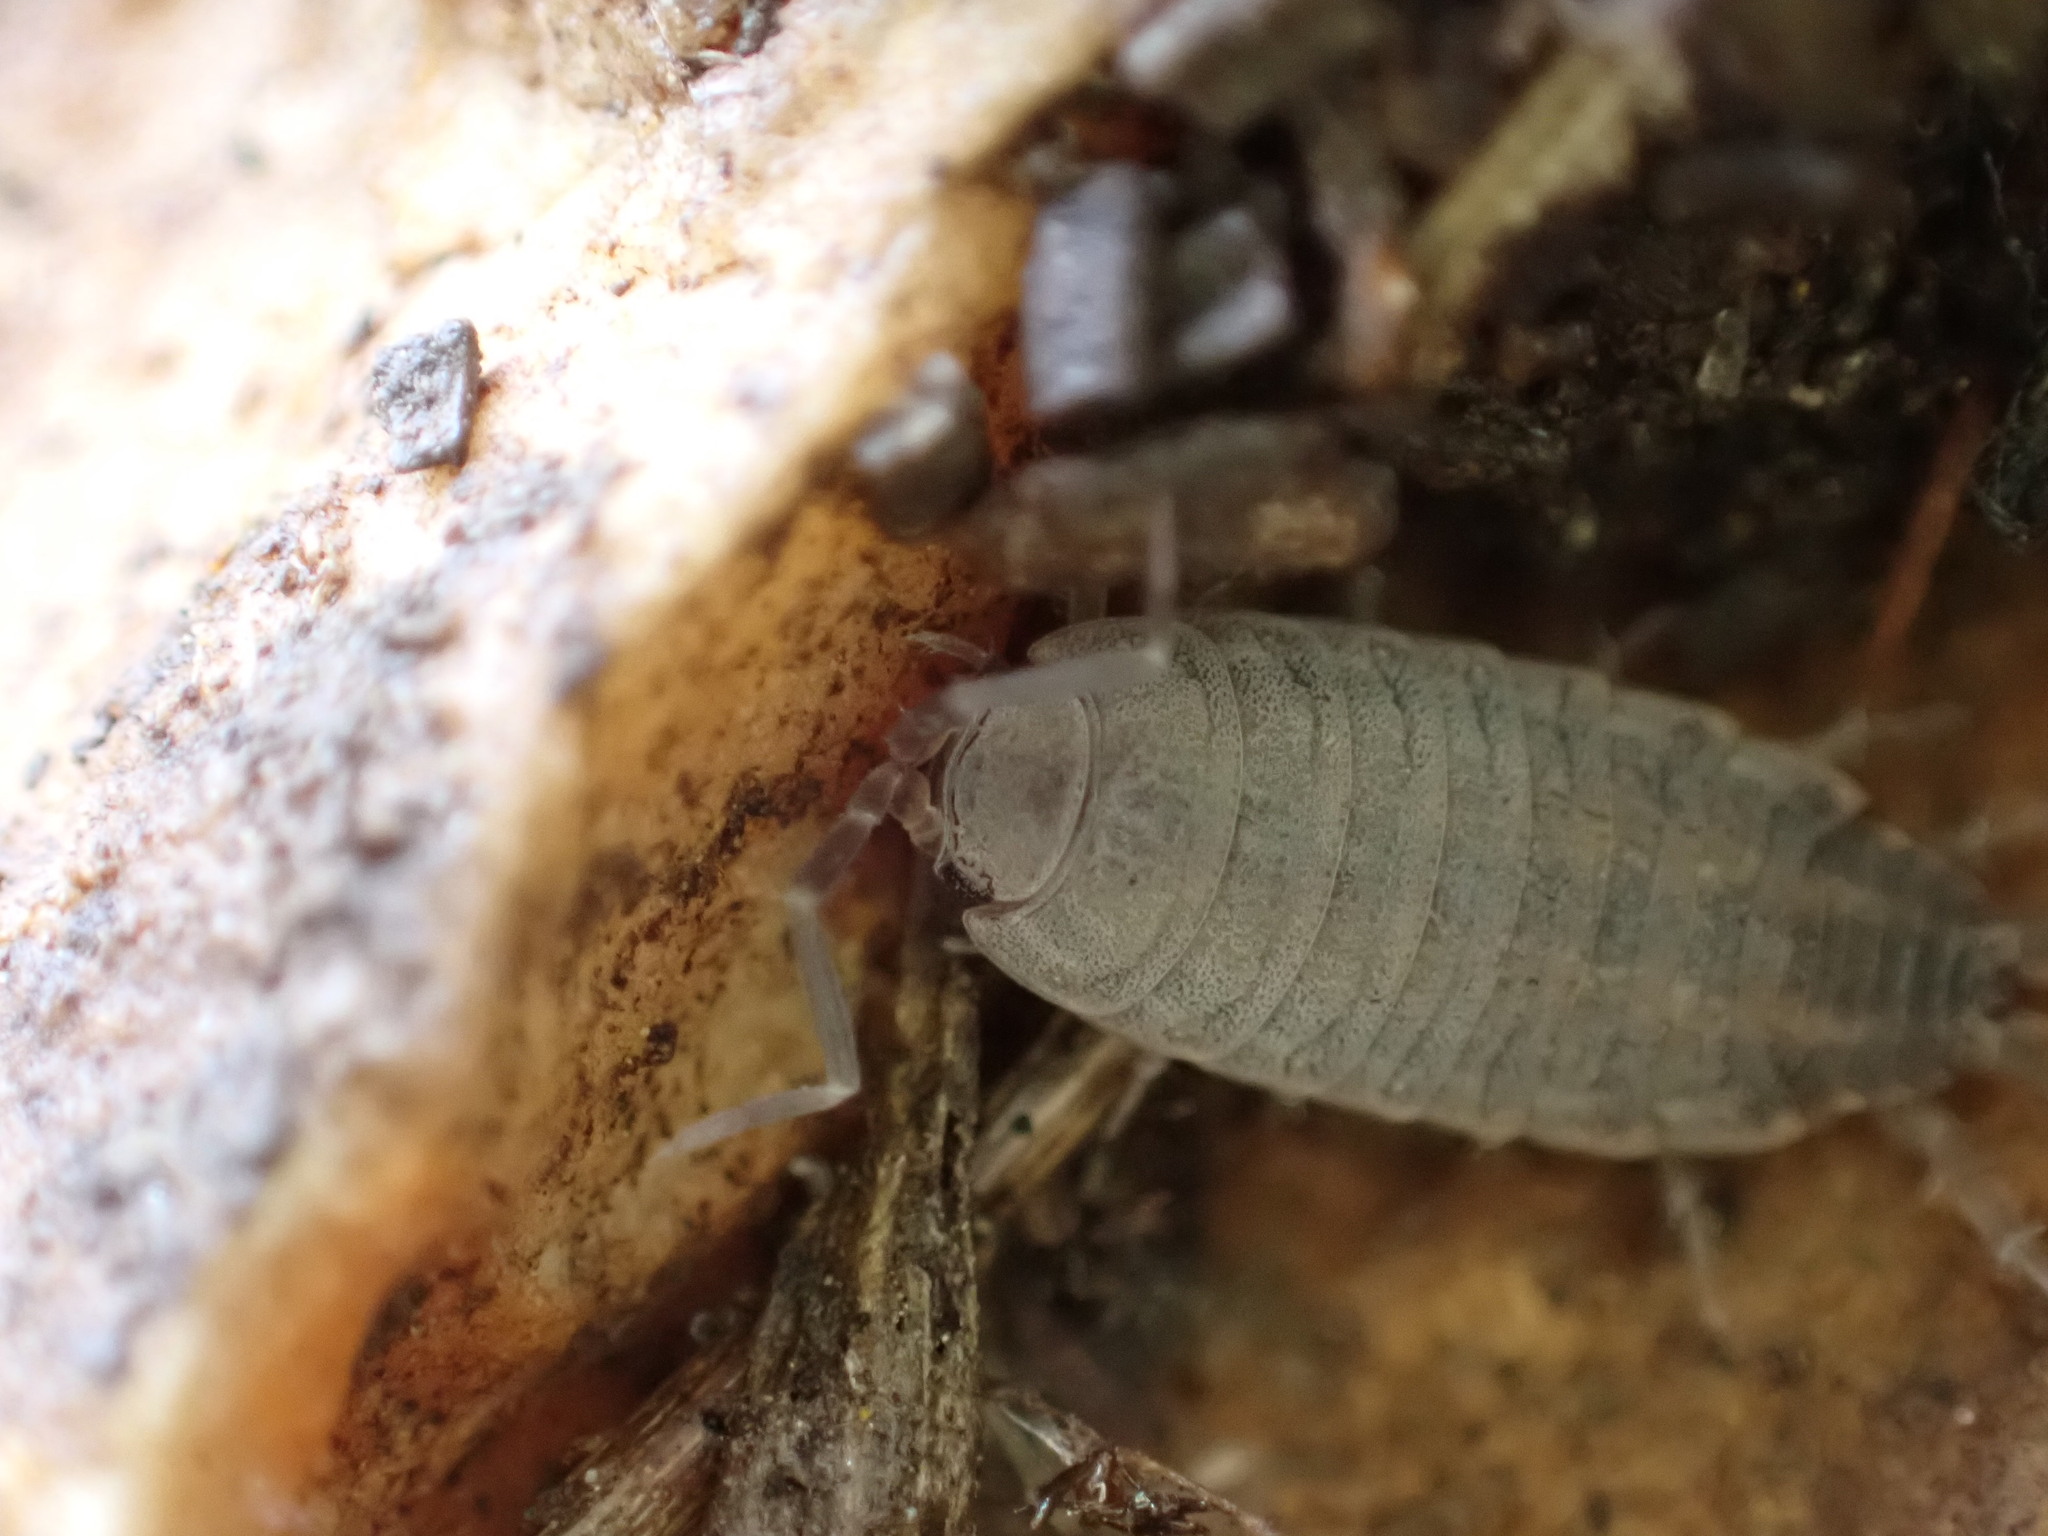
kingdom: Animalia
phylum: Arthropoda
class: Malacostraca
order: Isopoda
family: Porcellionidae
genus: Porcellionides
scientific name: Porcellionides sexfasciatus
